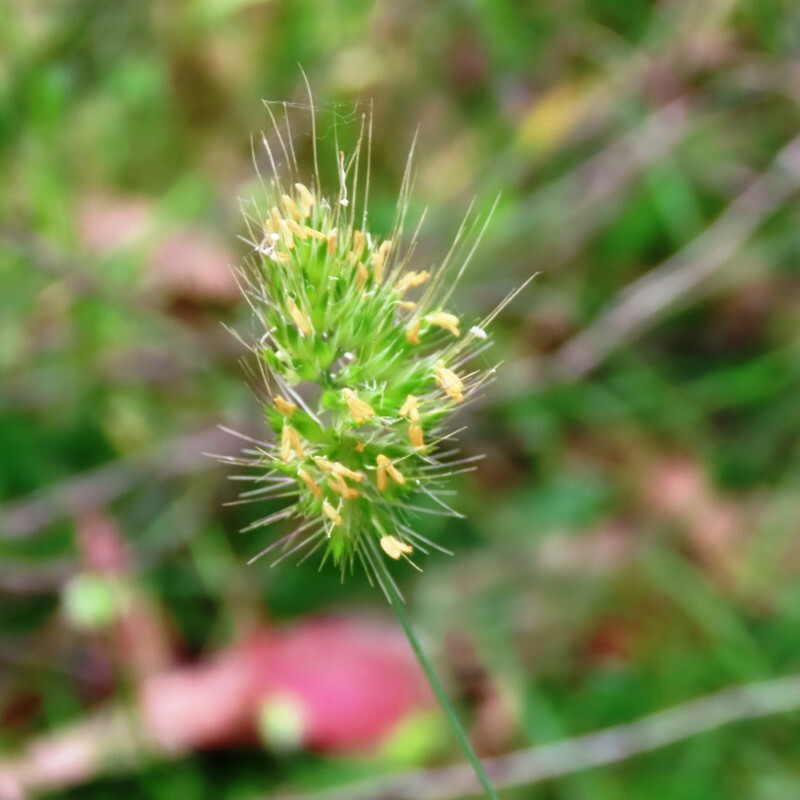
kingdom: Plantae
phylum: Tracheophyta
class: Liliopsida
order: Poales
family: Poaceae
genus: Cynosurus
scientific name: Cynosurus echinatus
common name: Rough dog's-tail
